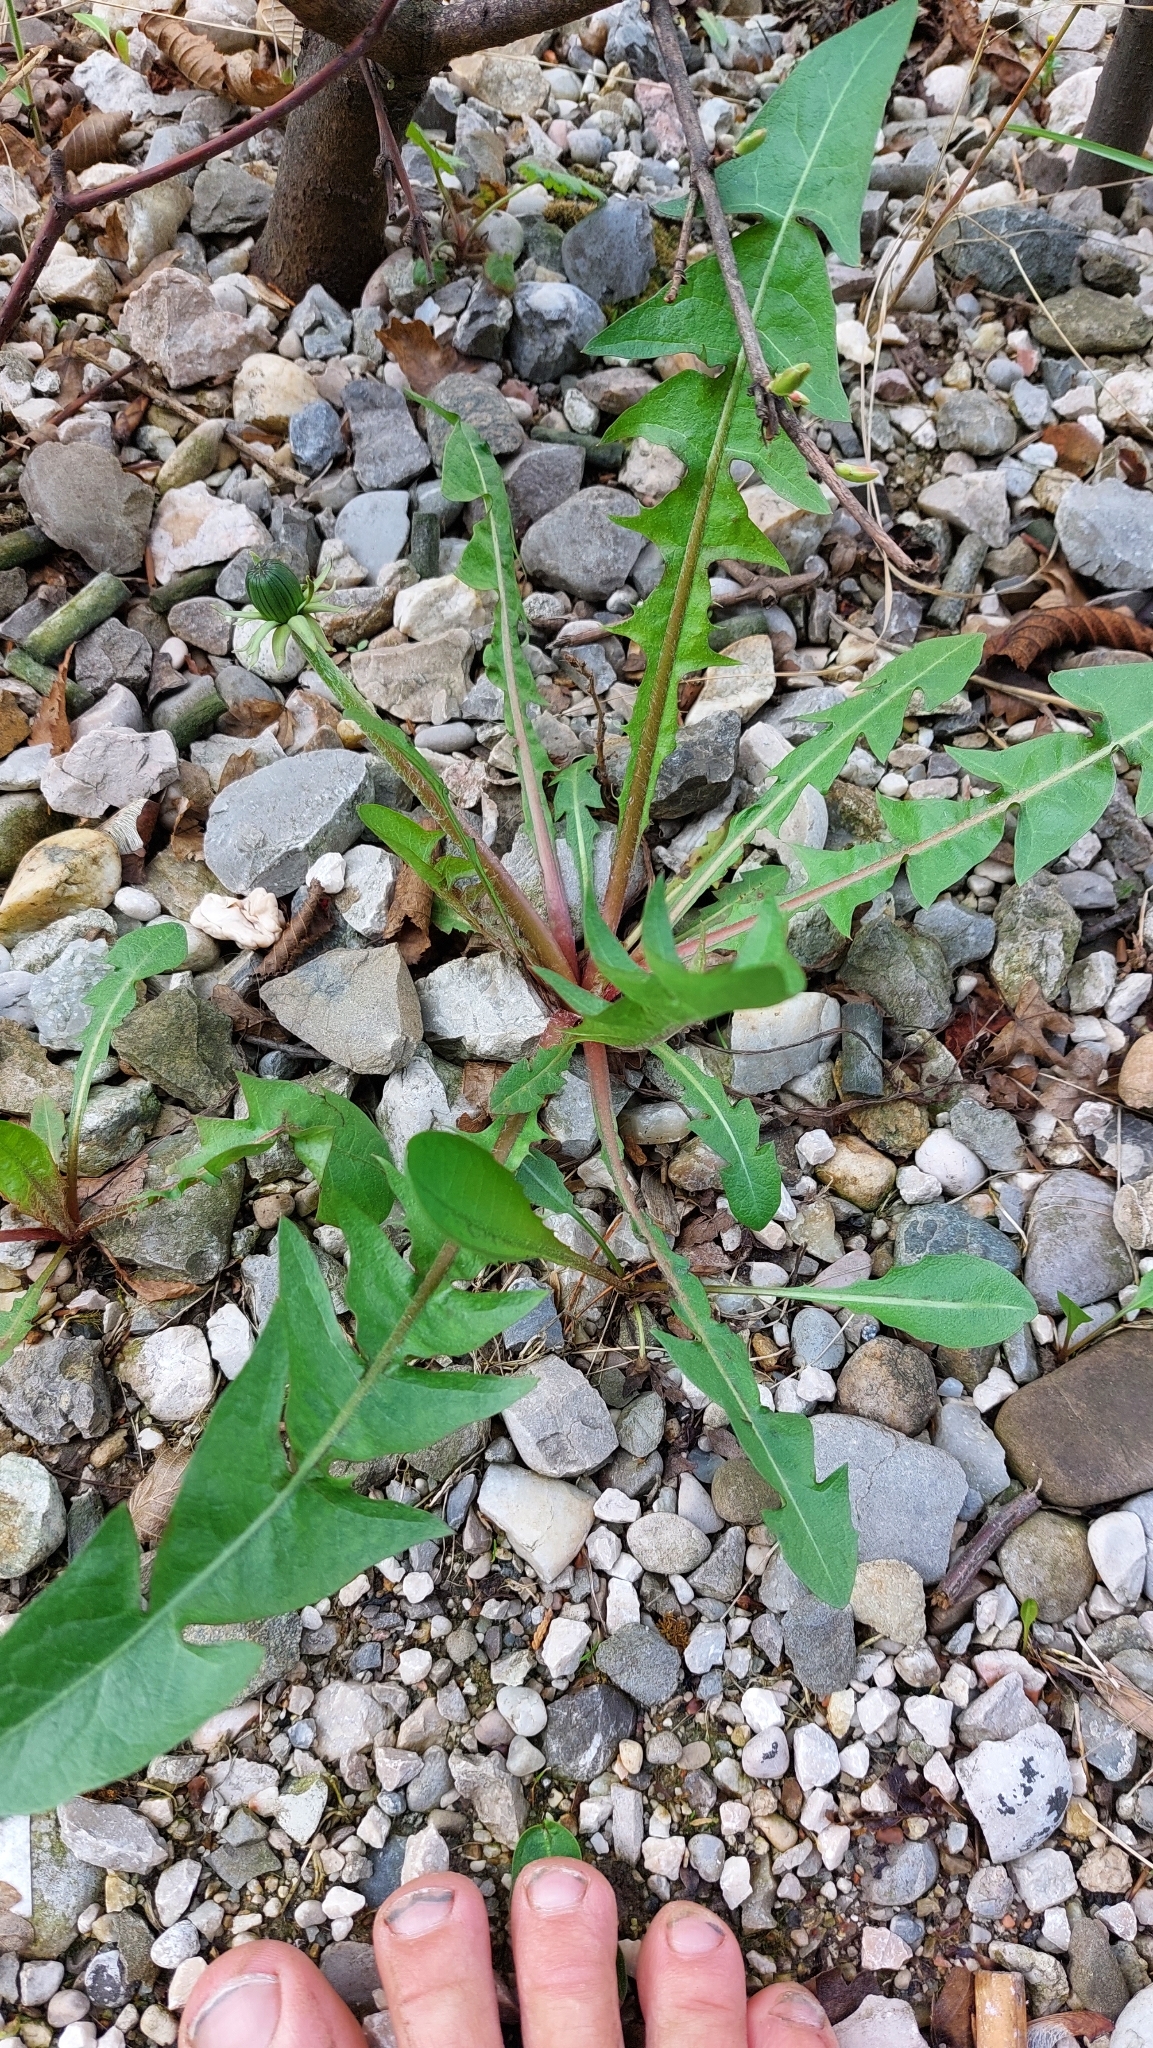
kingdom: Plantae
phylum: Tracheophyta
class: Magnoliopsida
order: Asterales
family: Asteraceae
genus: Taraxacum
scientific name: Taraxacum
